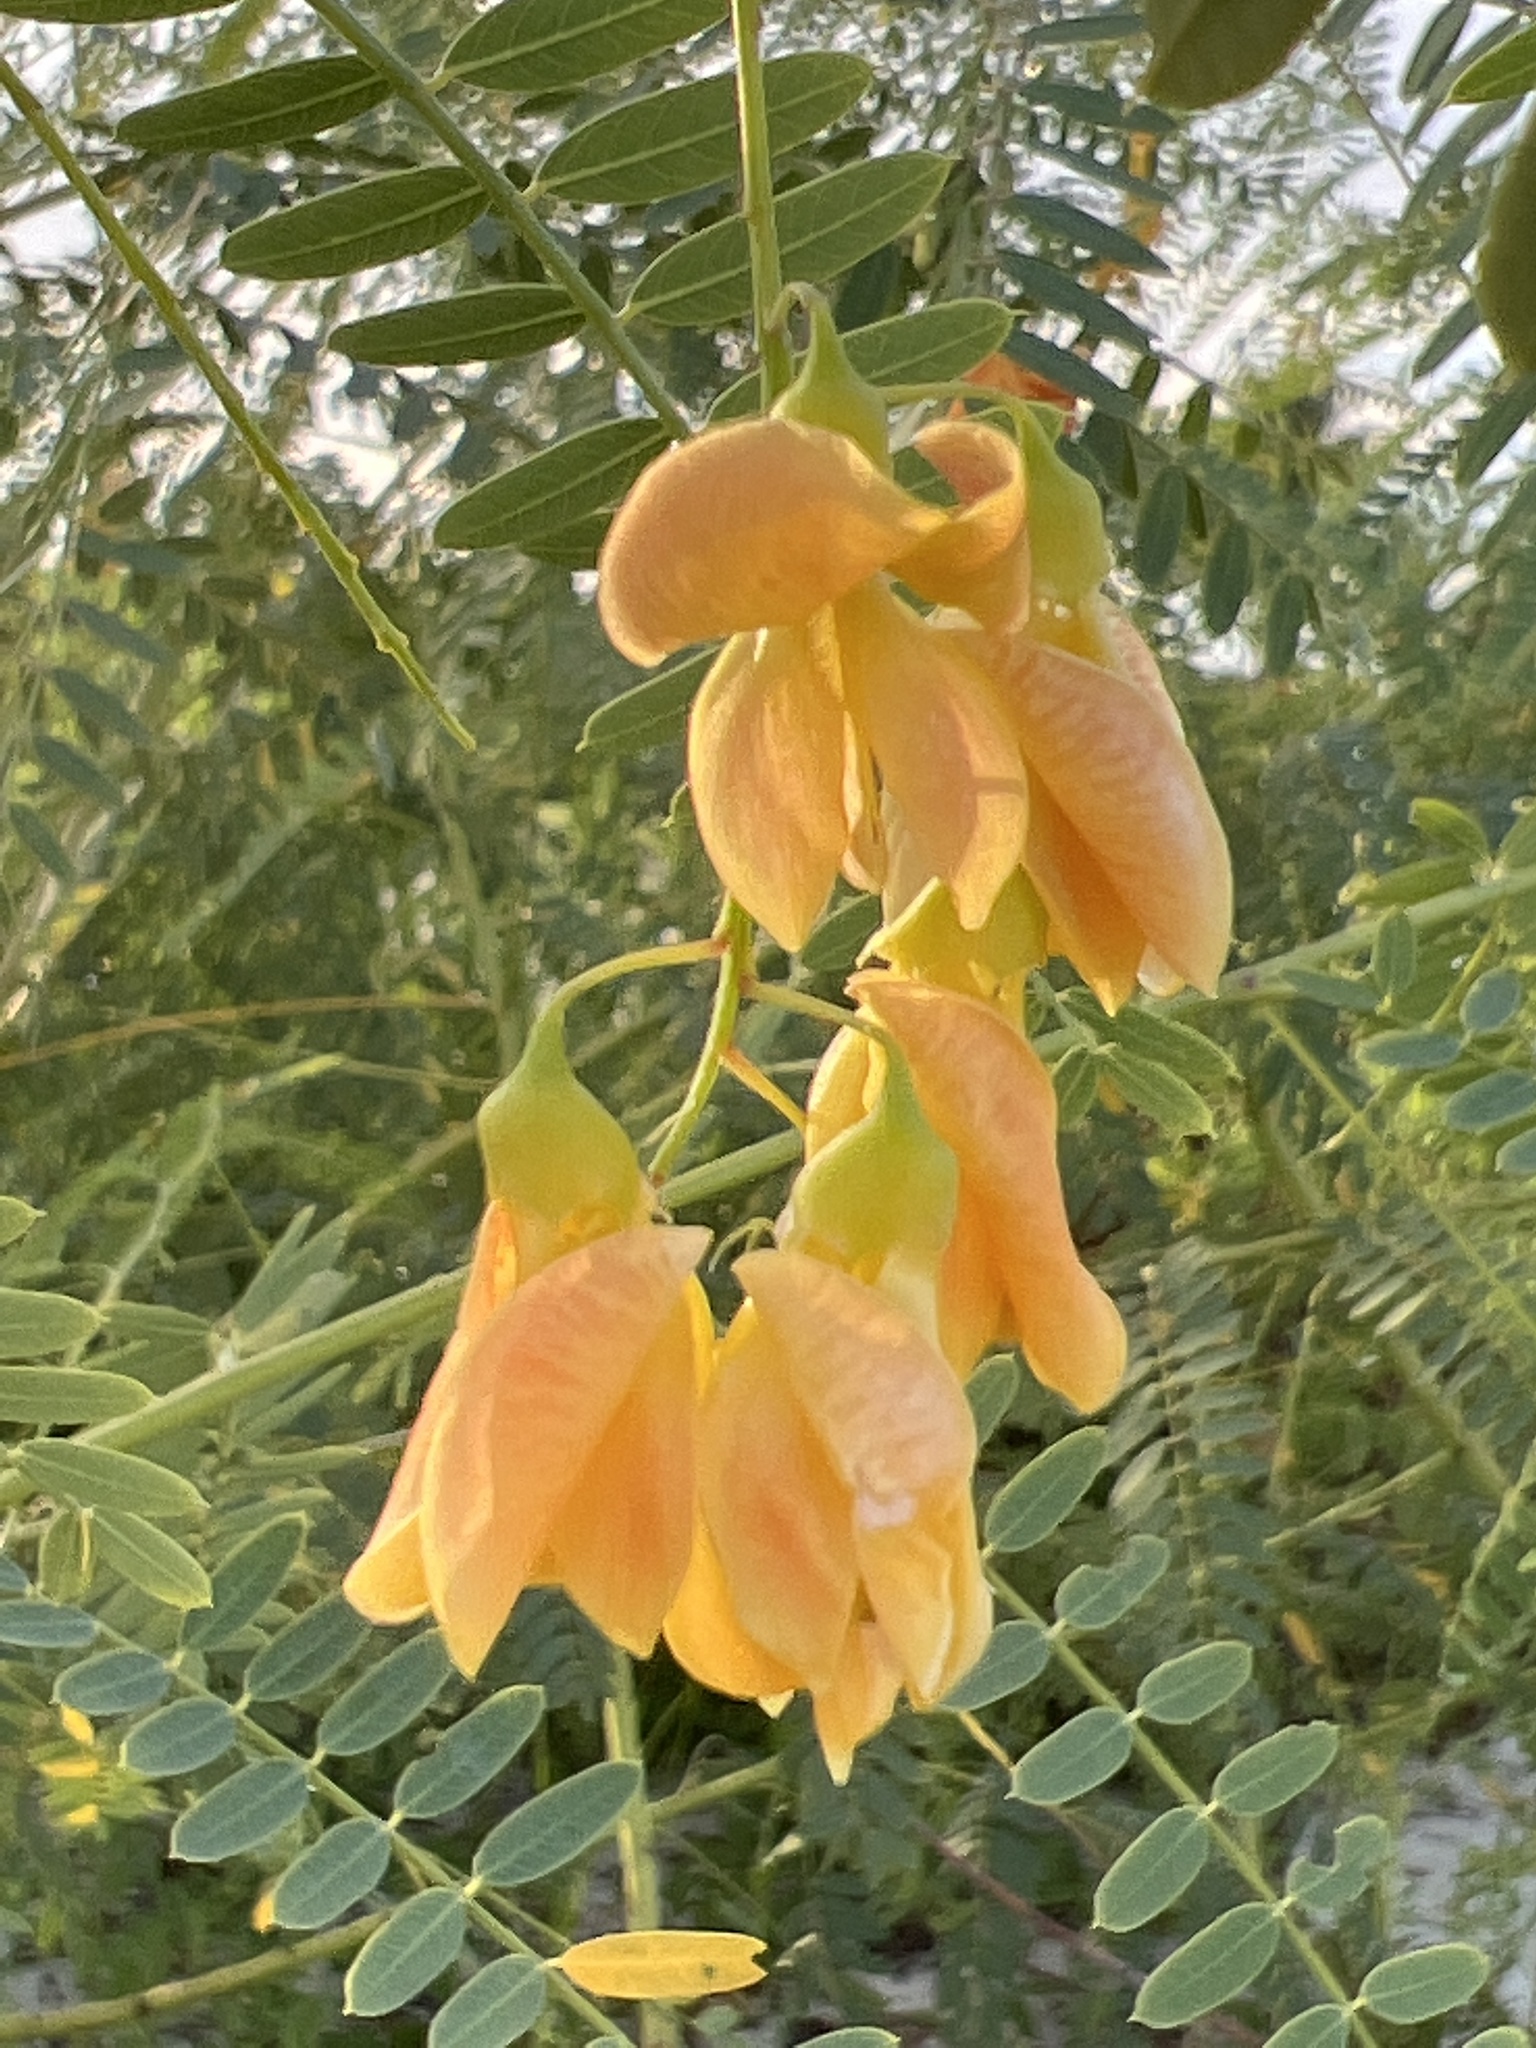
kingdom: Plantae
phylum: Tracheophyta
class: Magnoliopsida
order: Fabales
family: Fabaceae
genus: Sesbania
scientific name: Sesbania drummondii
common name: Poison-bean
